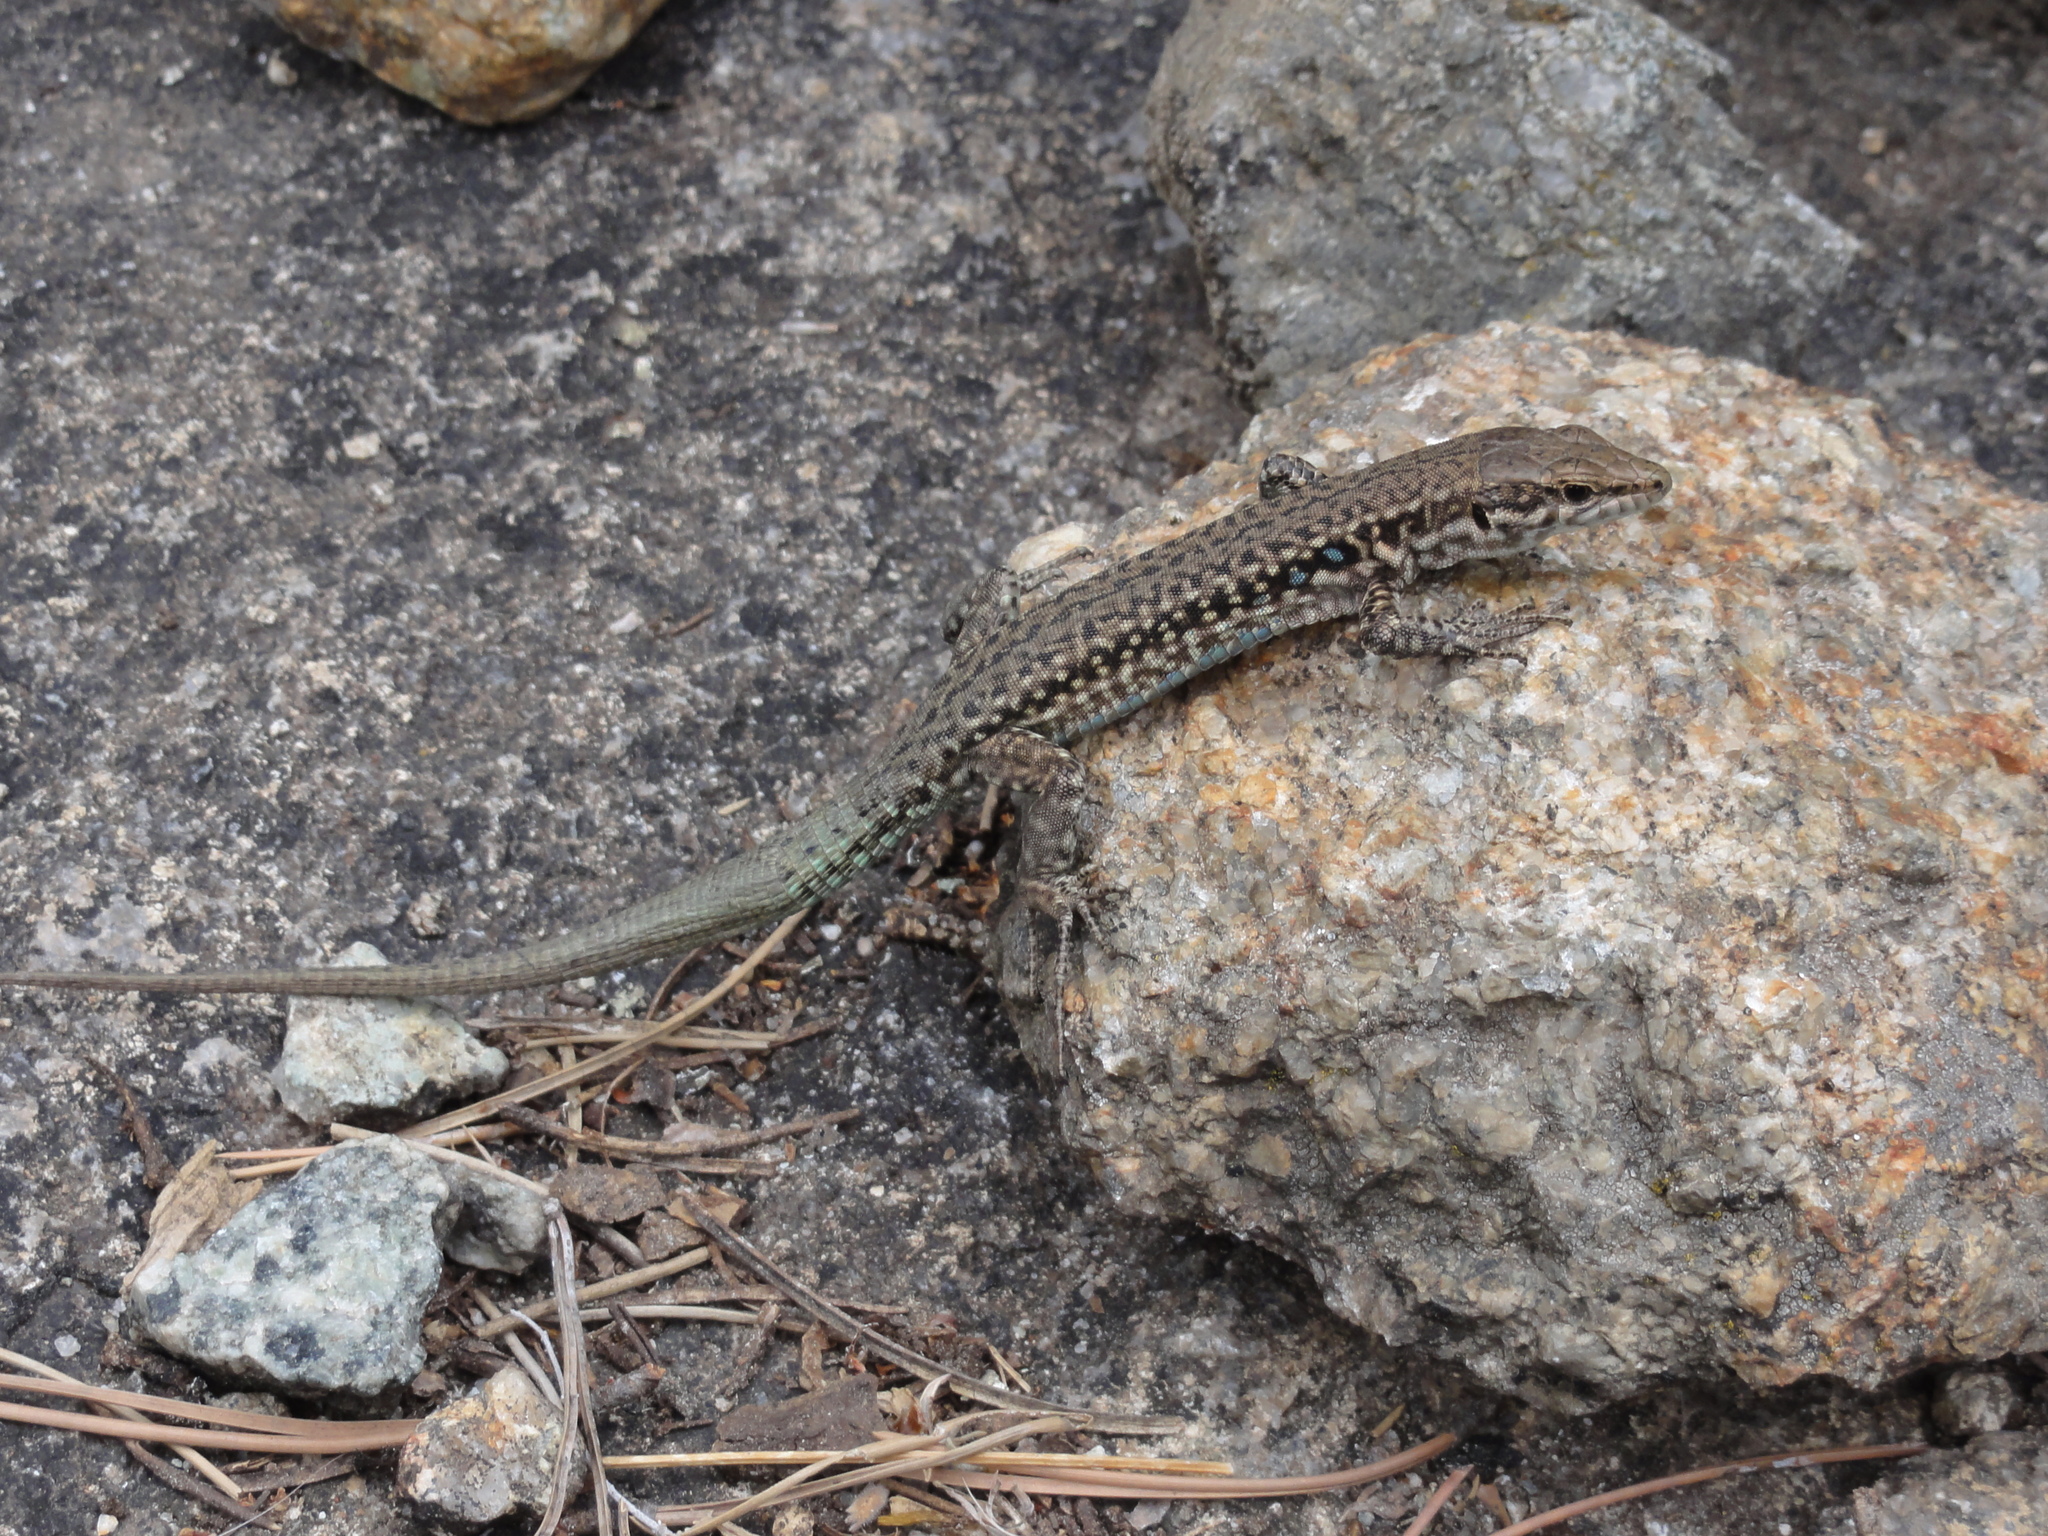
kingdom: Animalia
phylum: Chordata
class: Squamata
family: Lacertidae
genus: Podarcis
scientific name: Podarcis tiliguerta
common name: Tyrrhenian wall lizard
